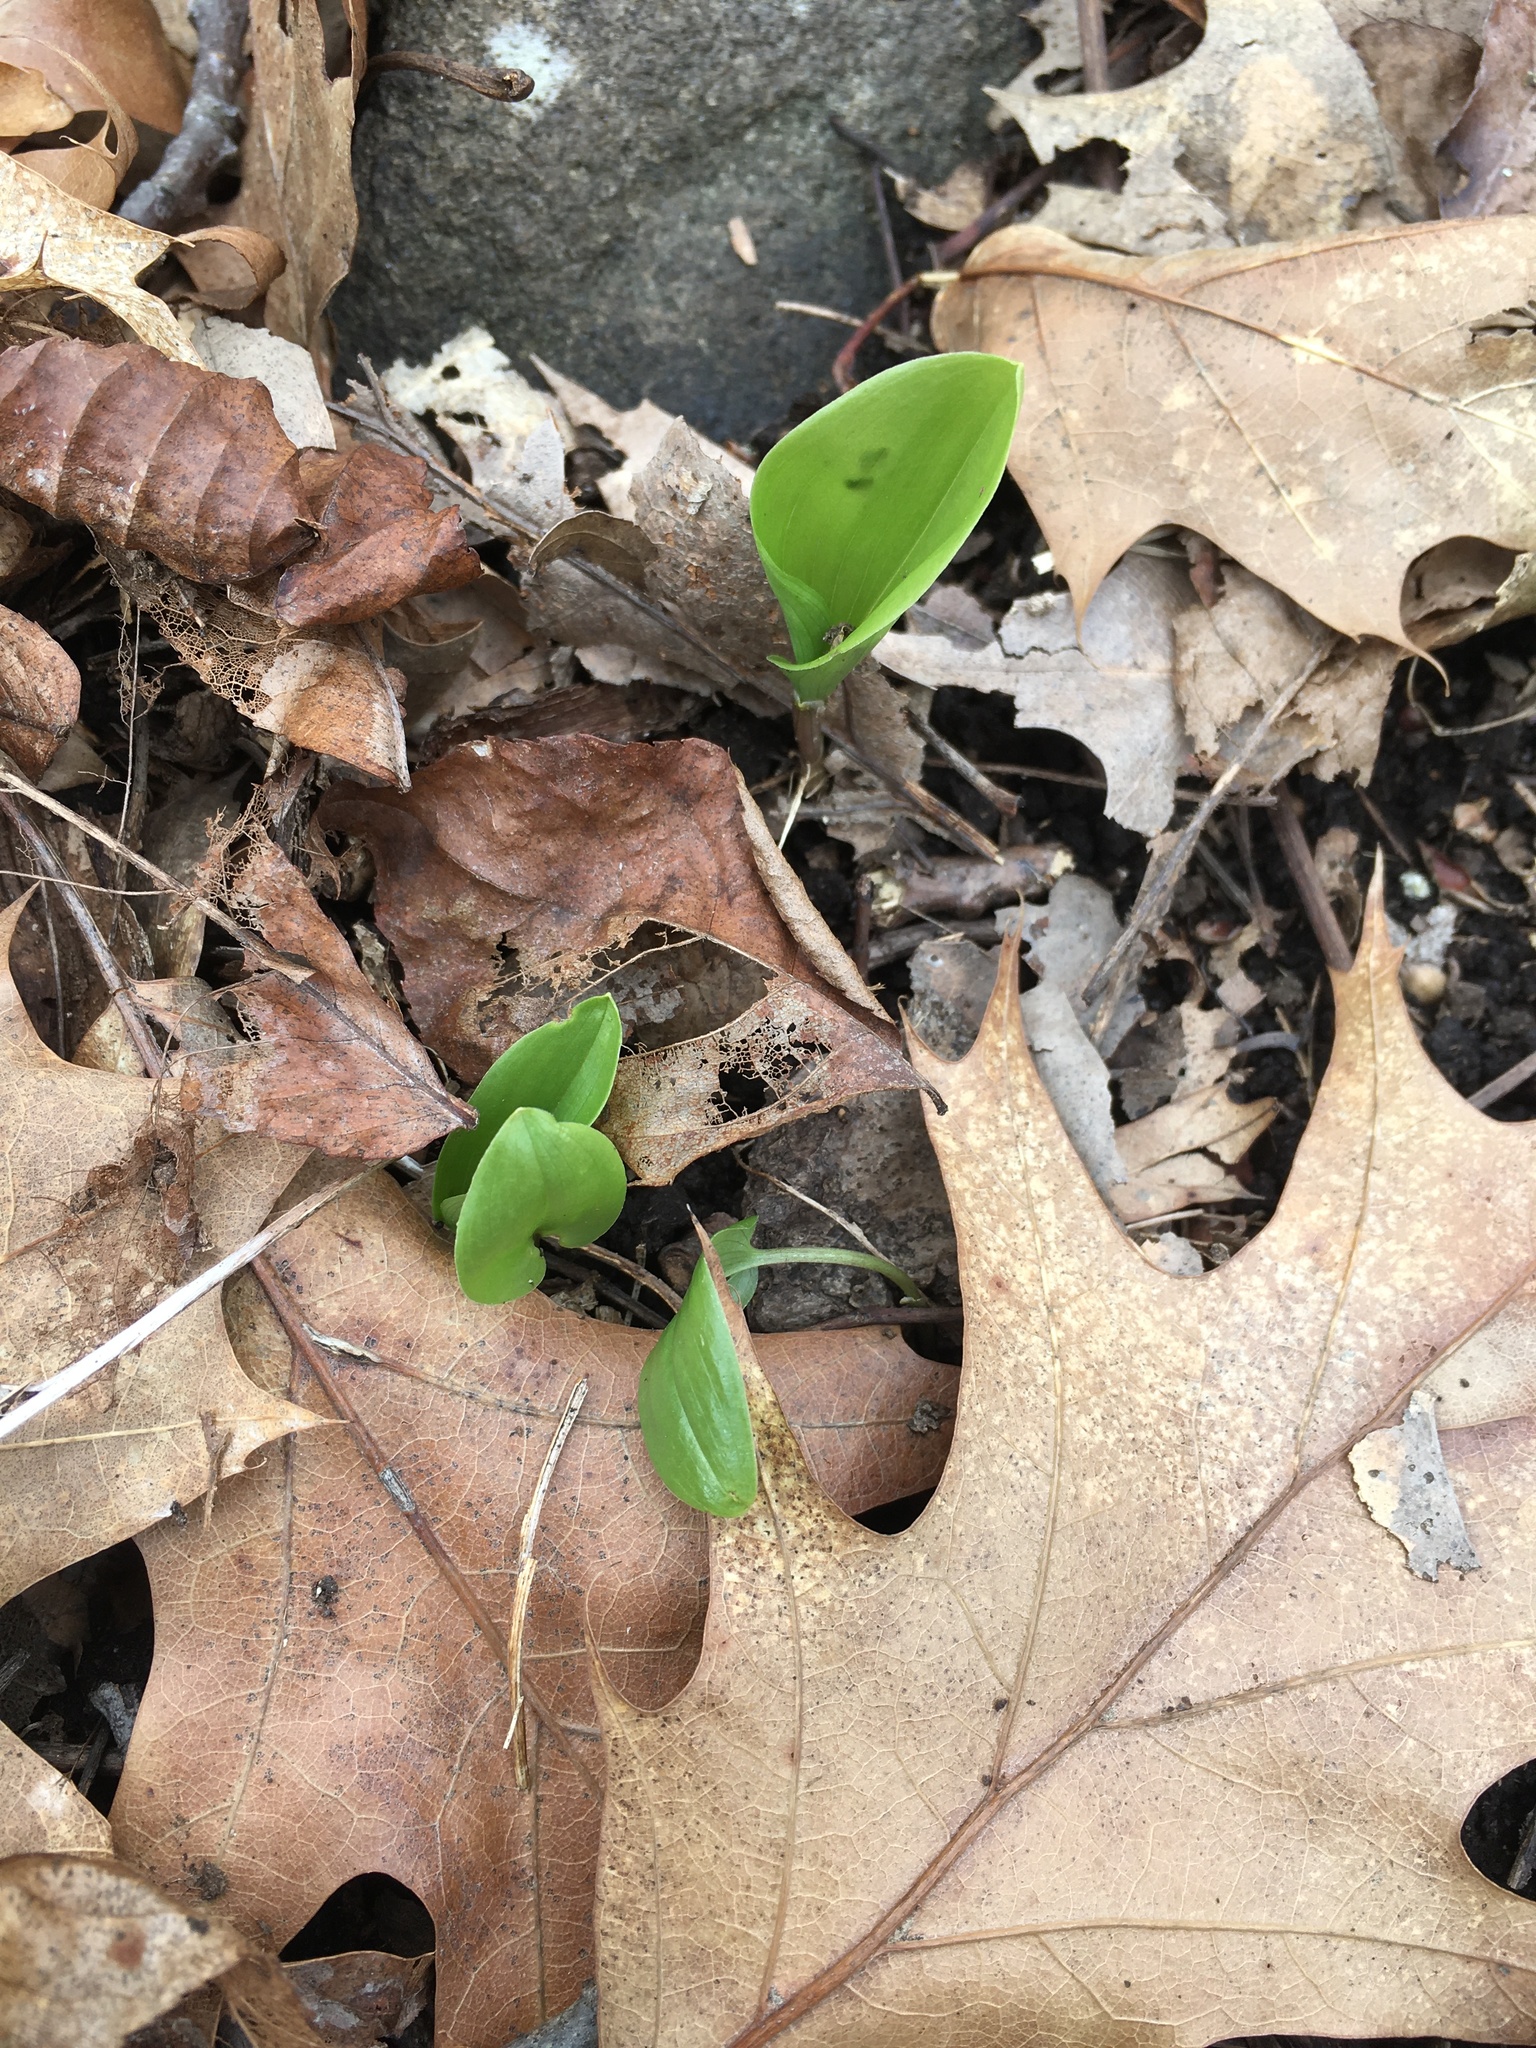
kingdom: Plantae
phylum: Tracheophyta
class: Liliopsida
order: Asparagales
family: Asparagaceae
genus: Maianthemum
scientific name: Maianthemum canadense
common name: False lily-of-the-valley
